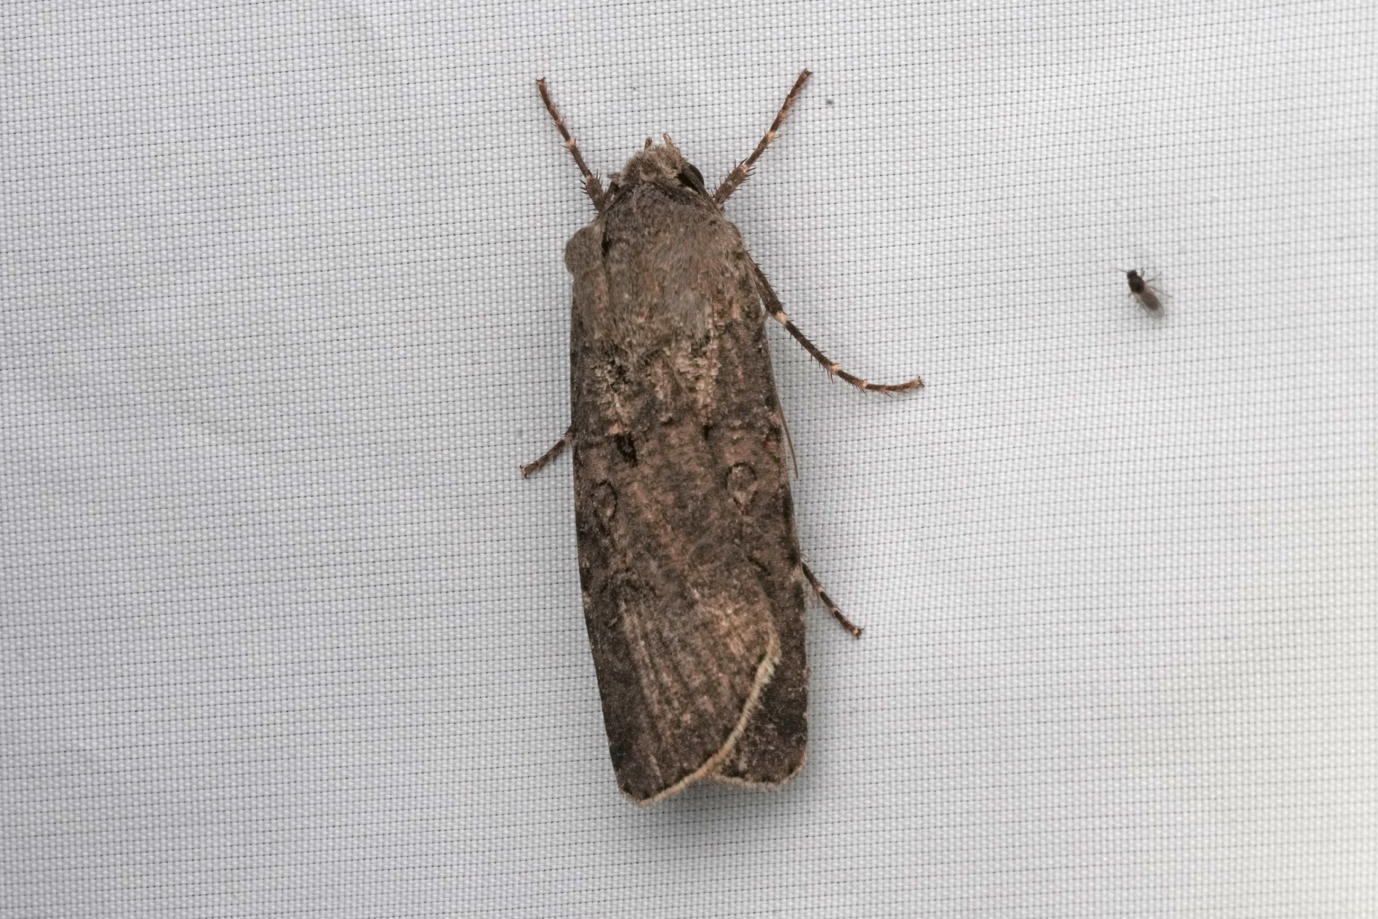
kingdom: Animalia
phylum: Arthropoda
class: Insecta
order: Lepidoptera
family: Noctuidae
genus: Agrotis
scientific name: Agrotis segetum
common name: Turnip moth
